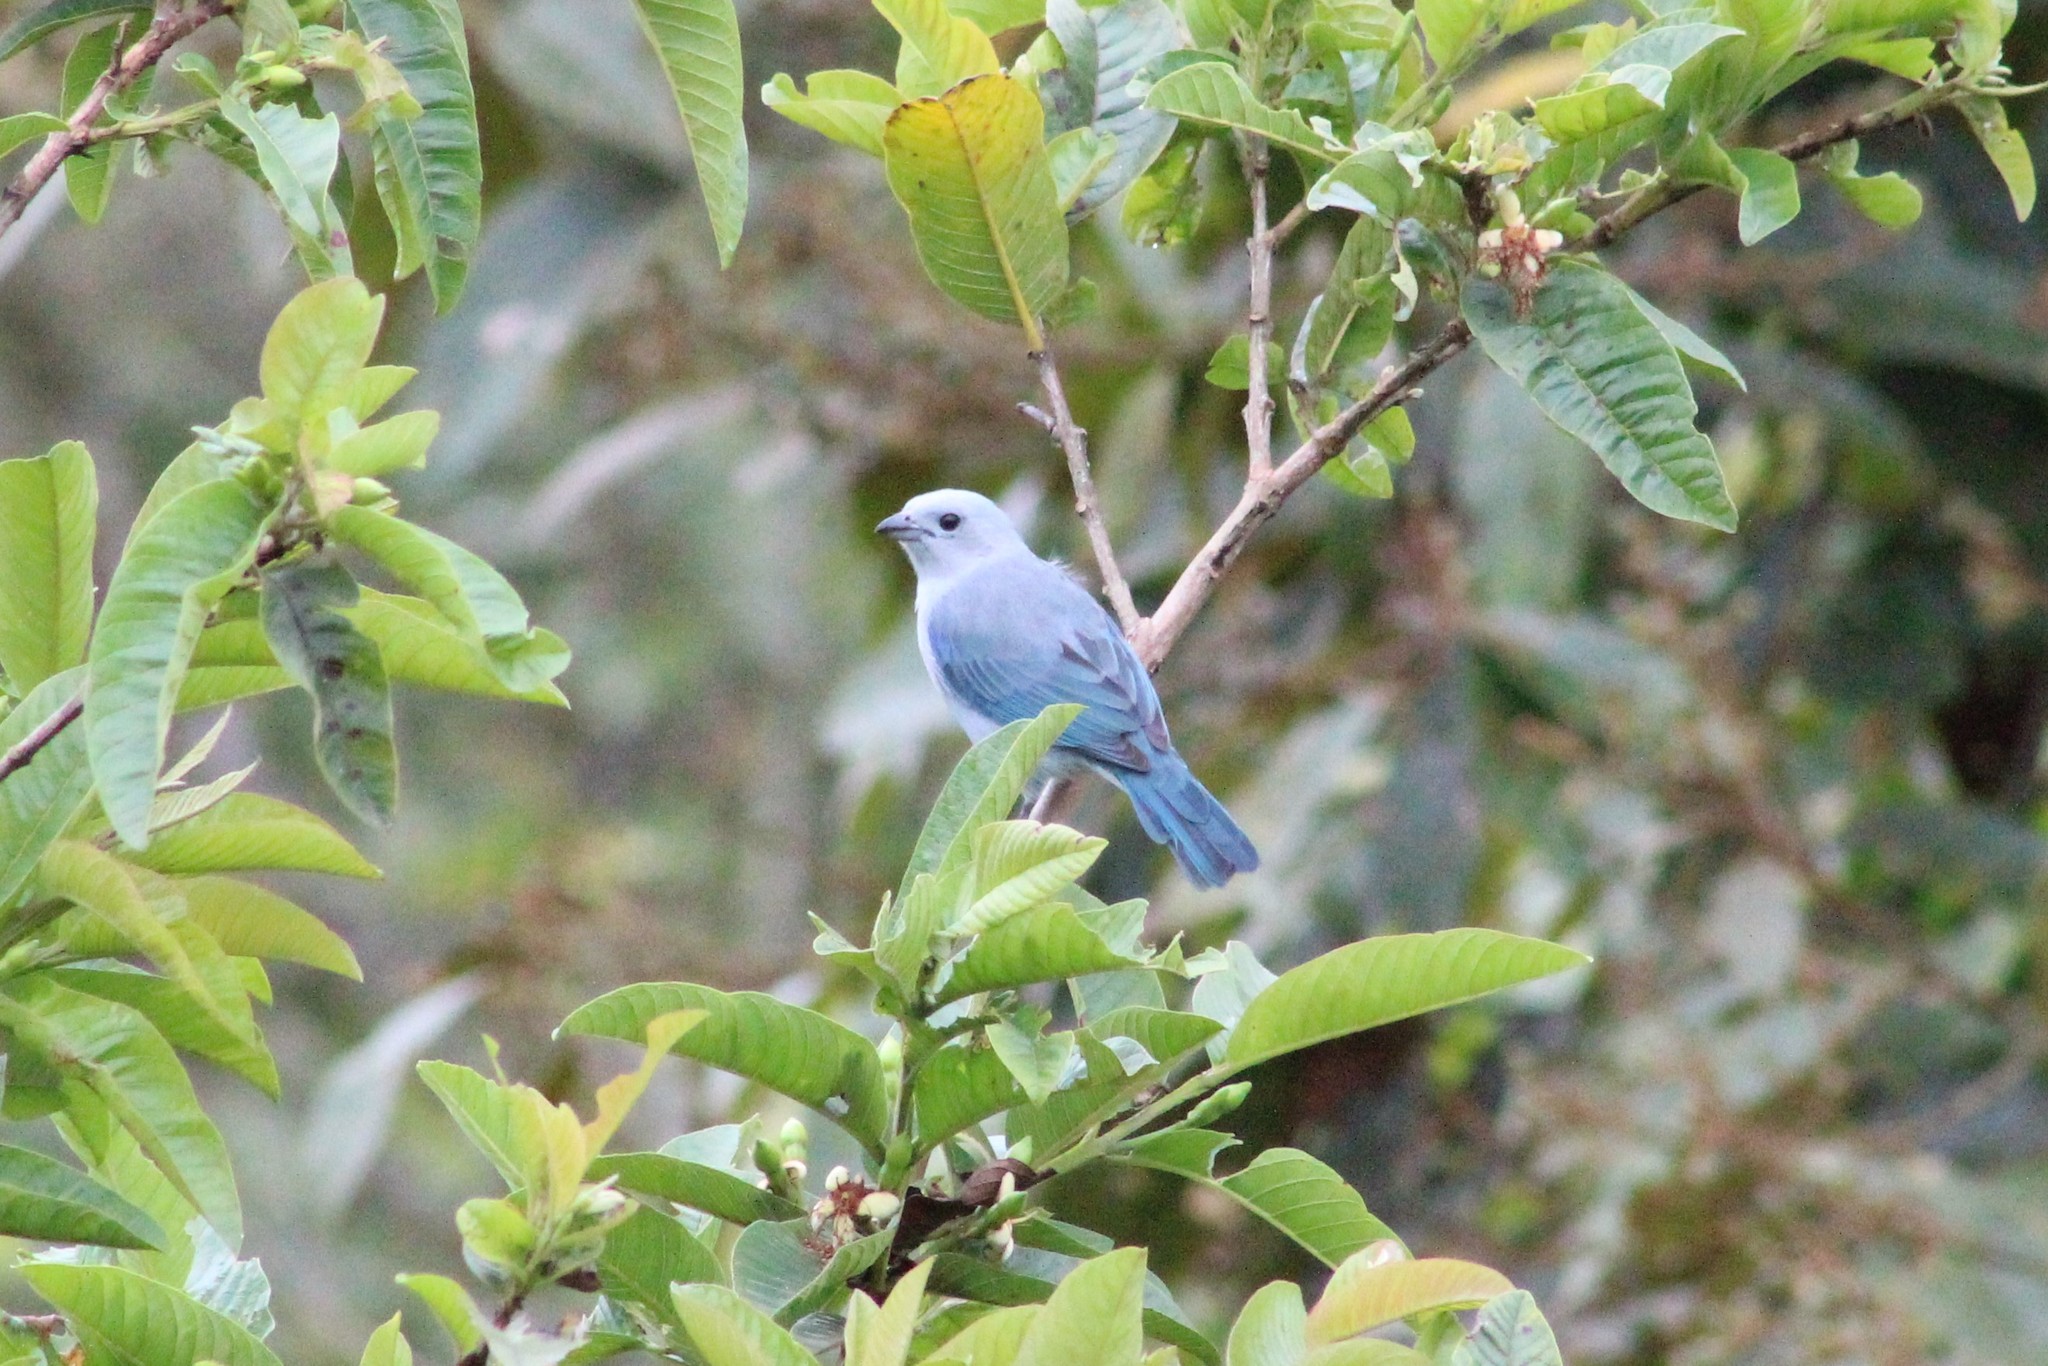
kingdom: Animalia
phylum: Chordata
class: Aves
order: Passeriformes
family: Thraupidae
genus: Thraupis
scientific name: Thraupis episcopus
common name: Blue-grey tanager
